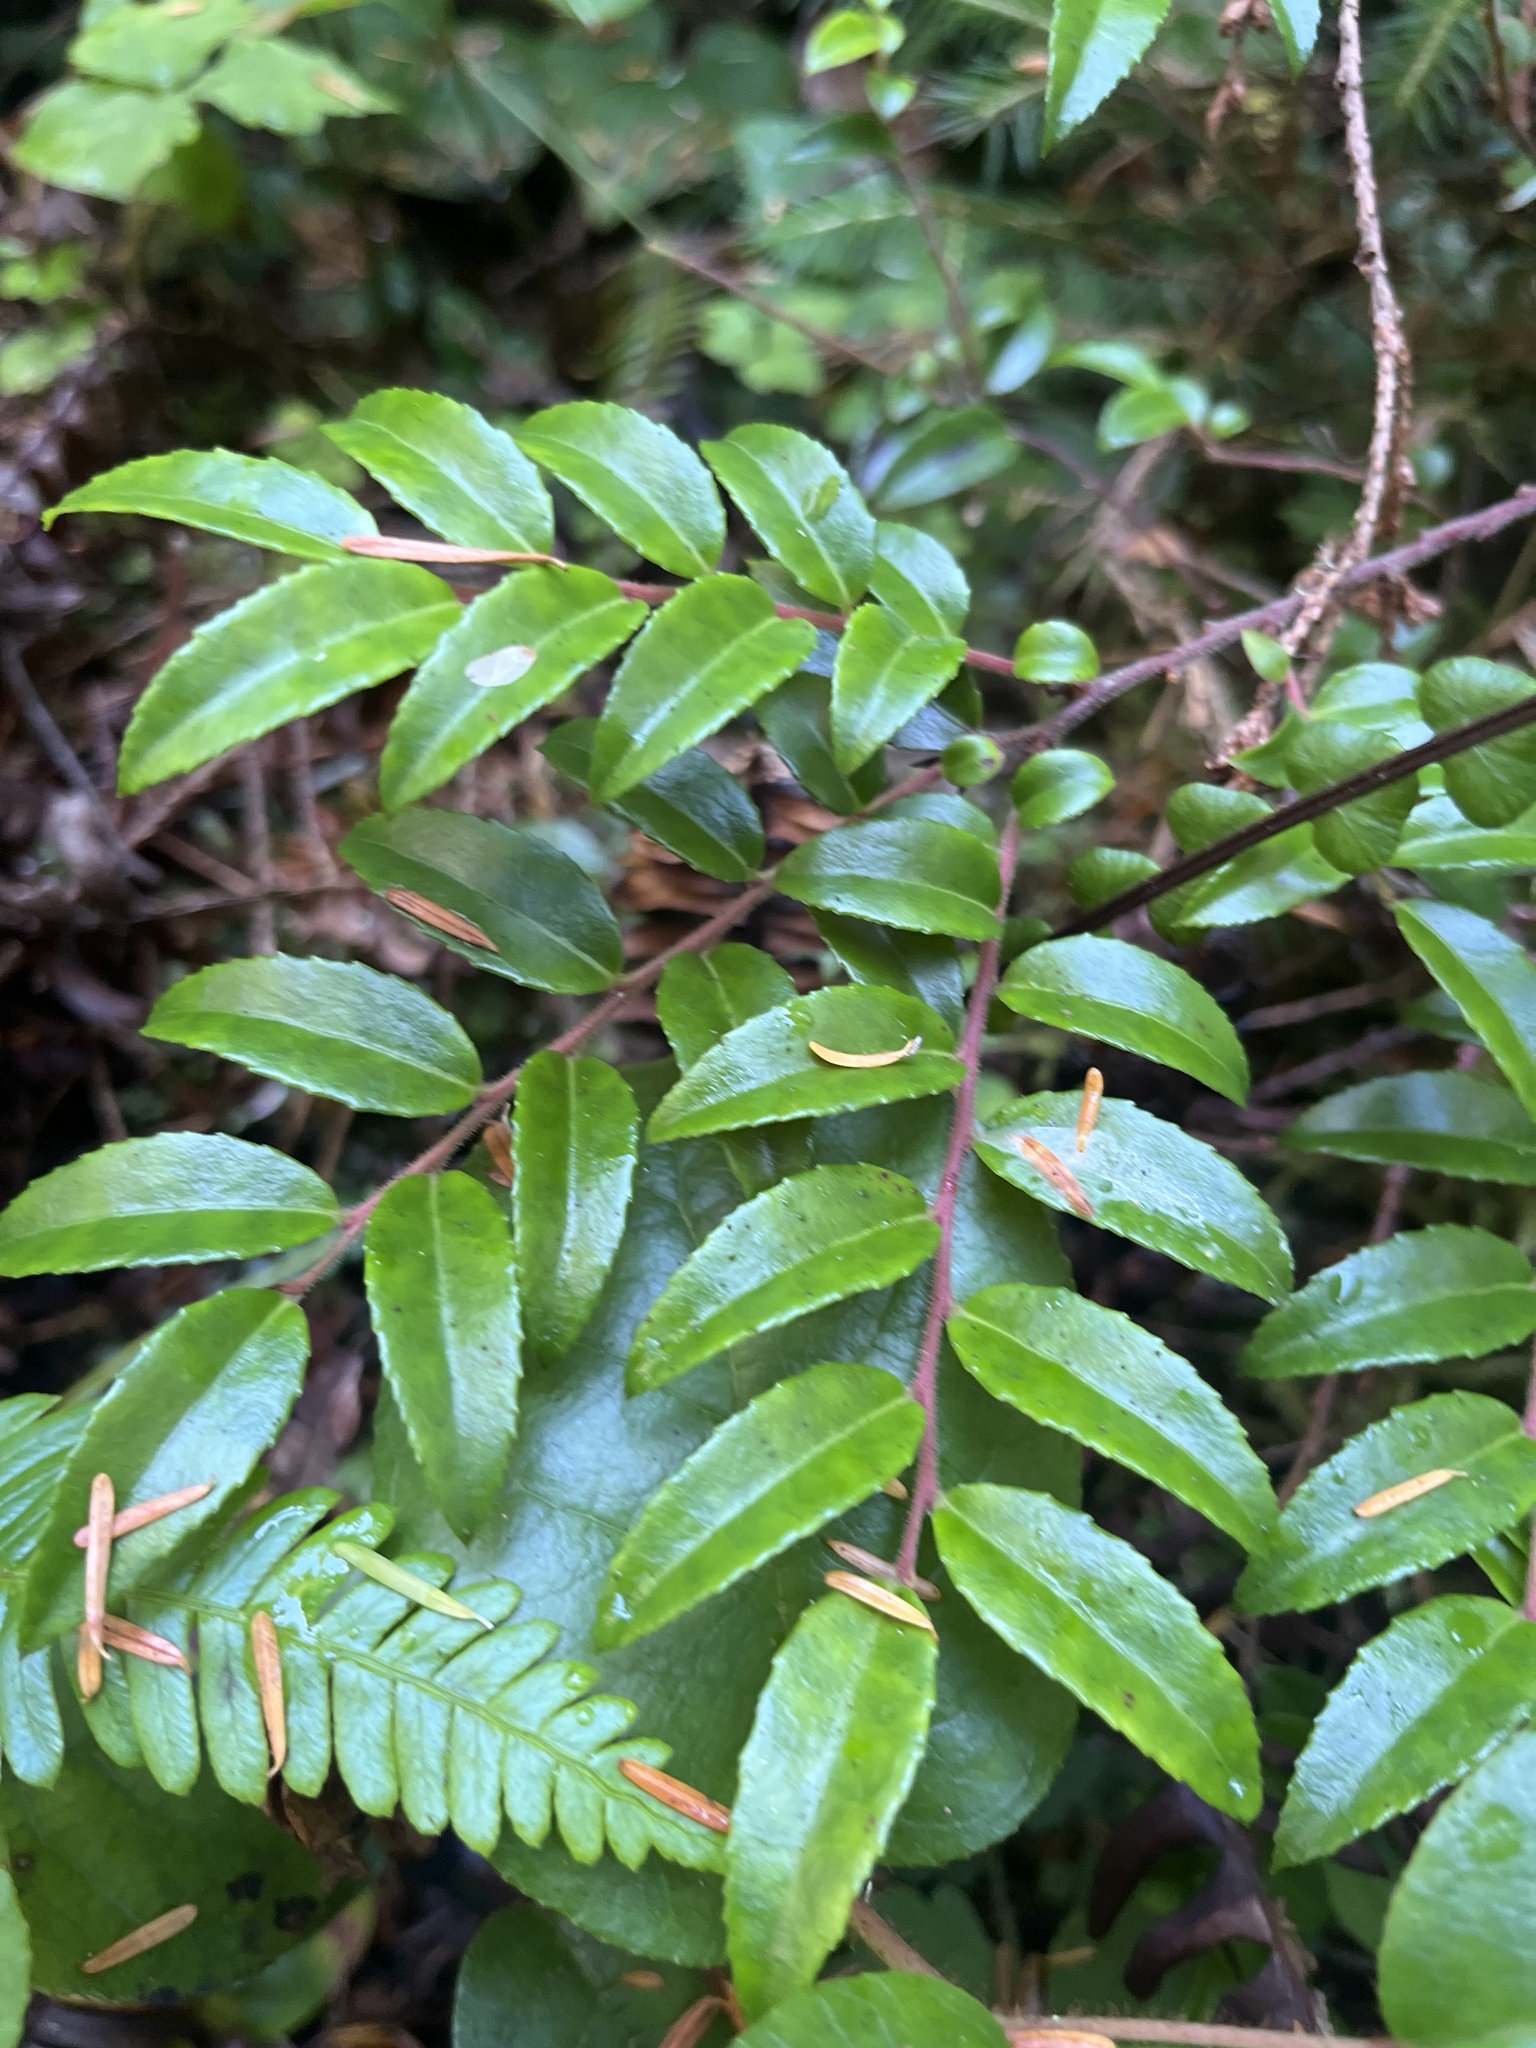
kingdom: Plantae
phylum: Tracheophyta
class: Magnoliopsida
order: Ericales
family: Ericaceae
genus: Vaccinium
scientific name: Vaccinium ovatum
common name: California-huckleberry
